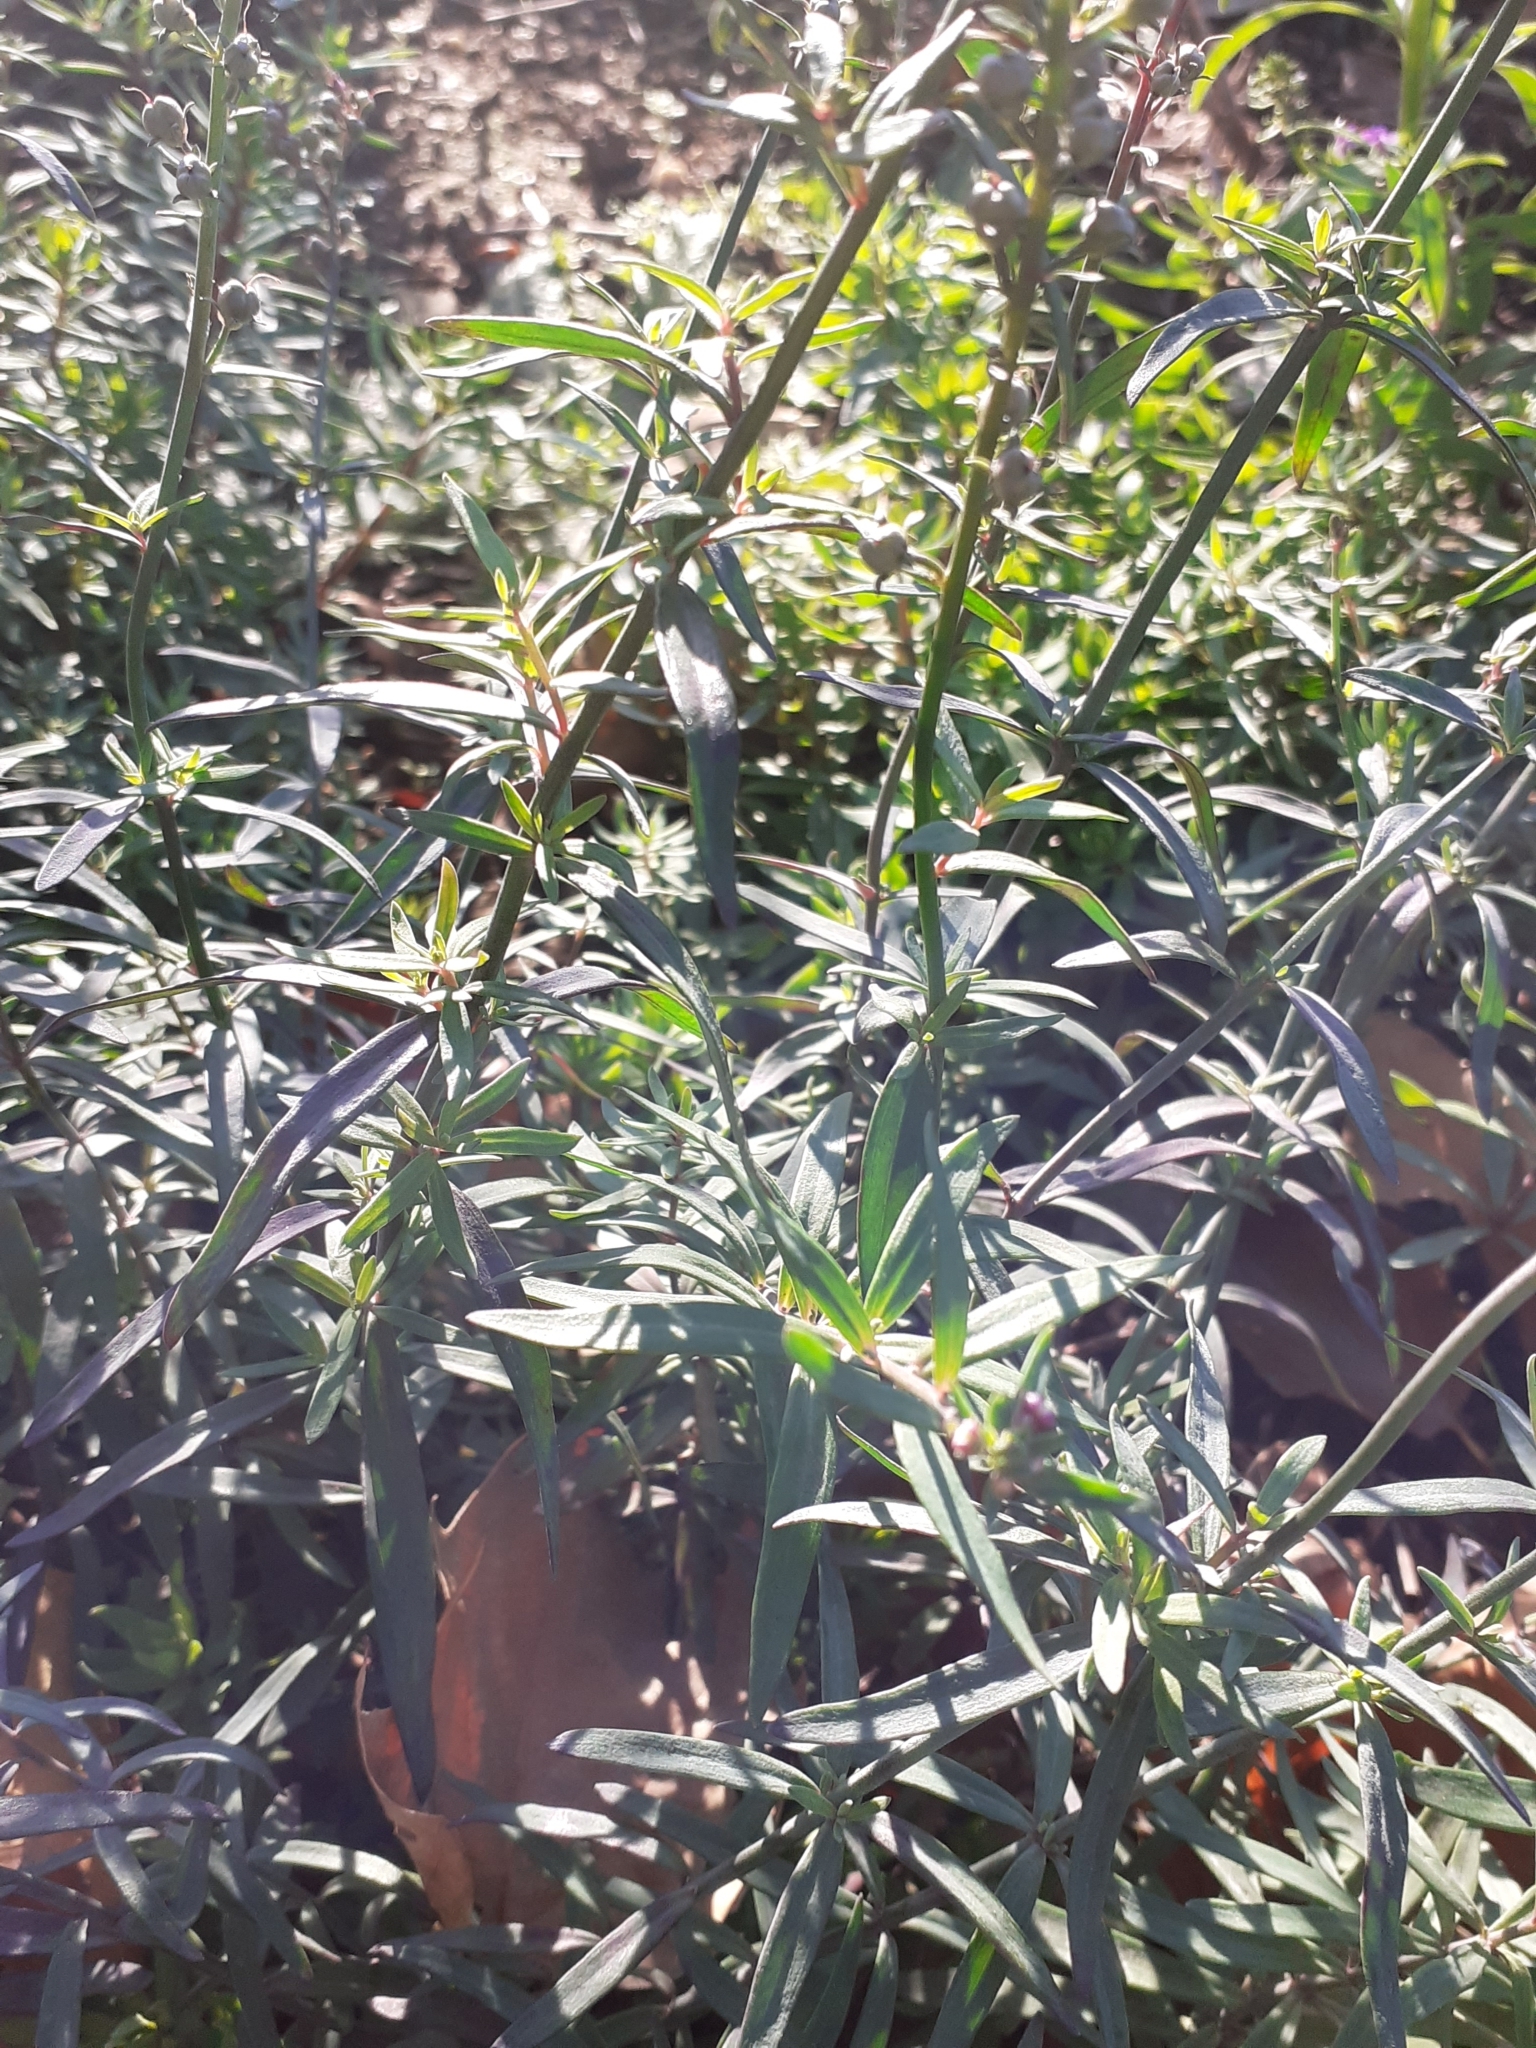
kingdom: Plantae
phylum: Tracheophyta
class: Magnoliopsida
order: Lamiales
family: Plantaginaceae
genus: Linaria
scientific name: Linaria purpurea
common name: Purple toadflax
